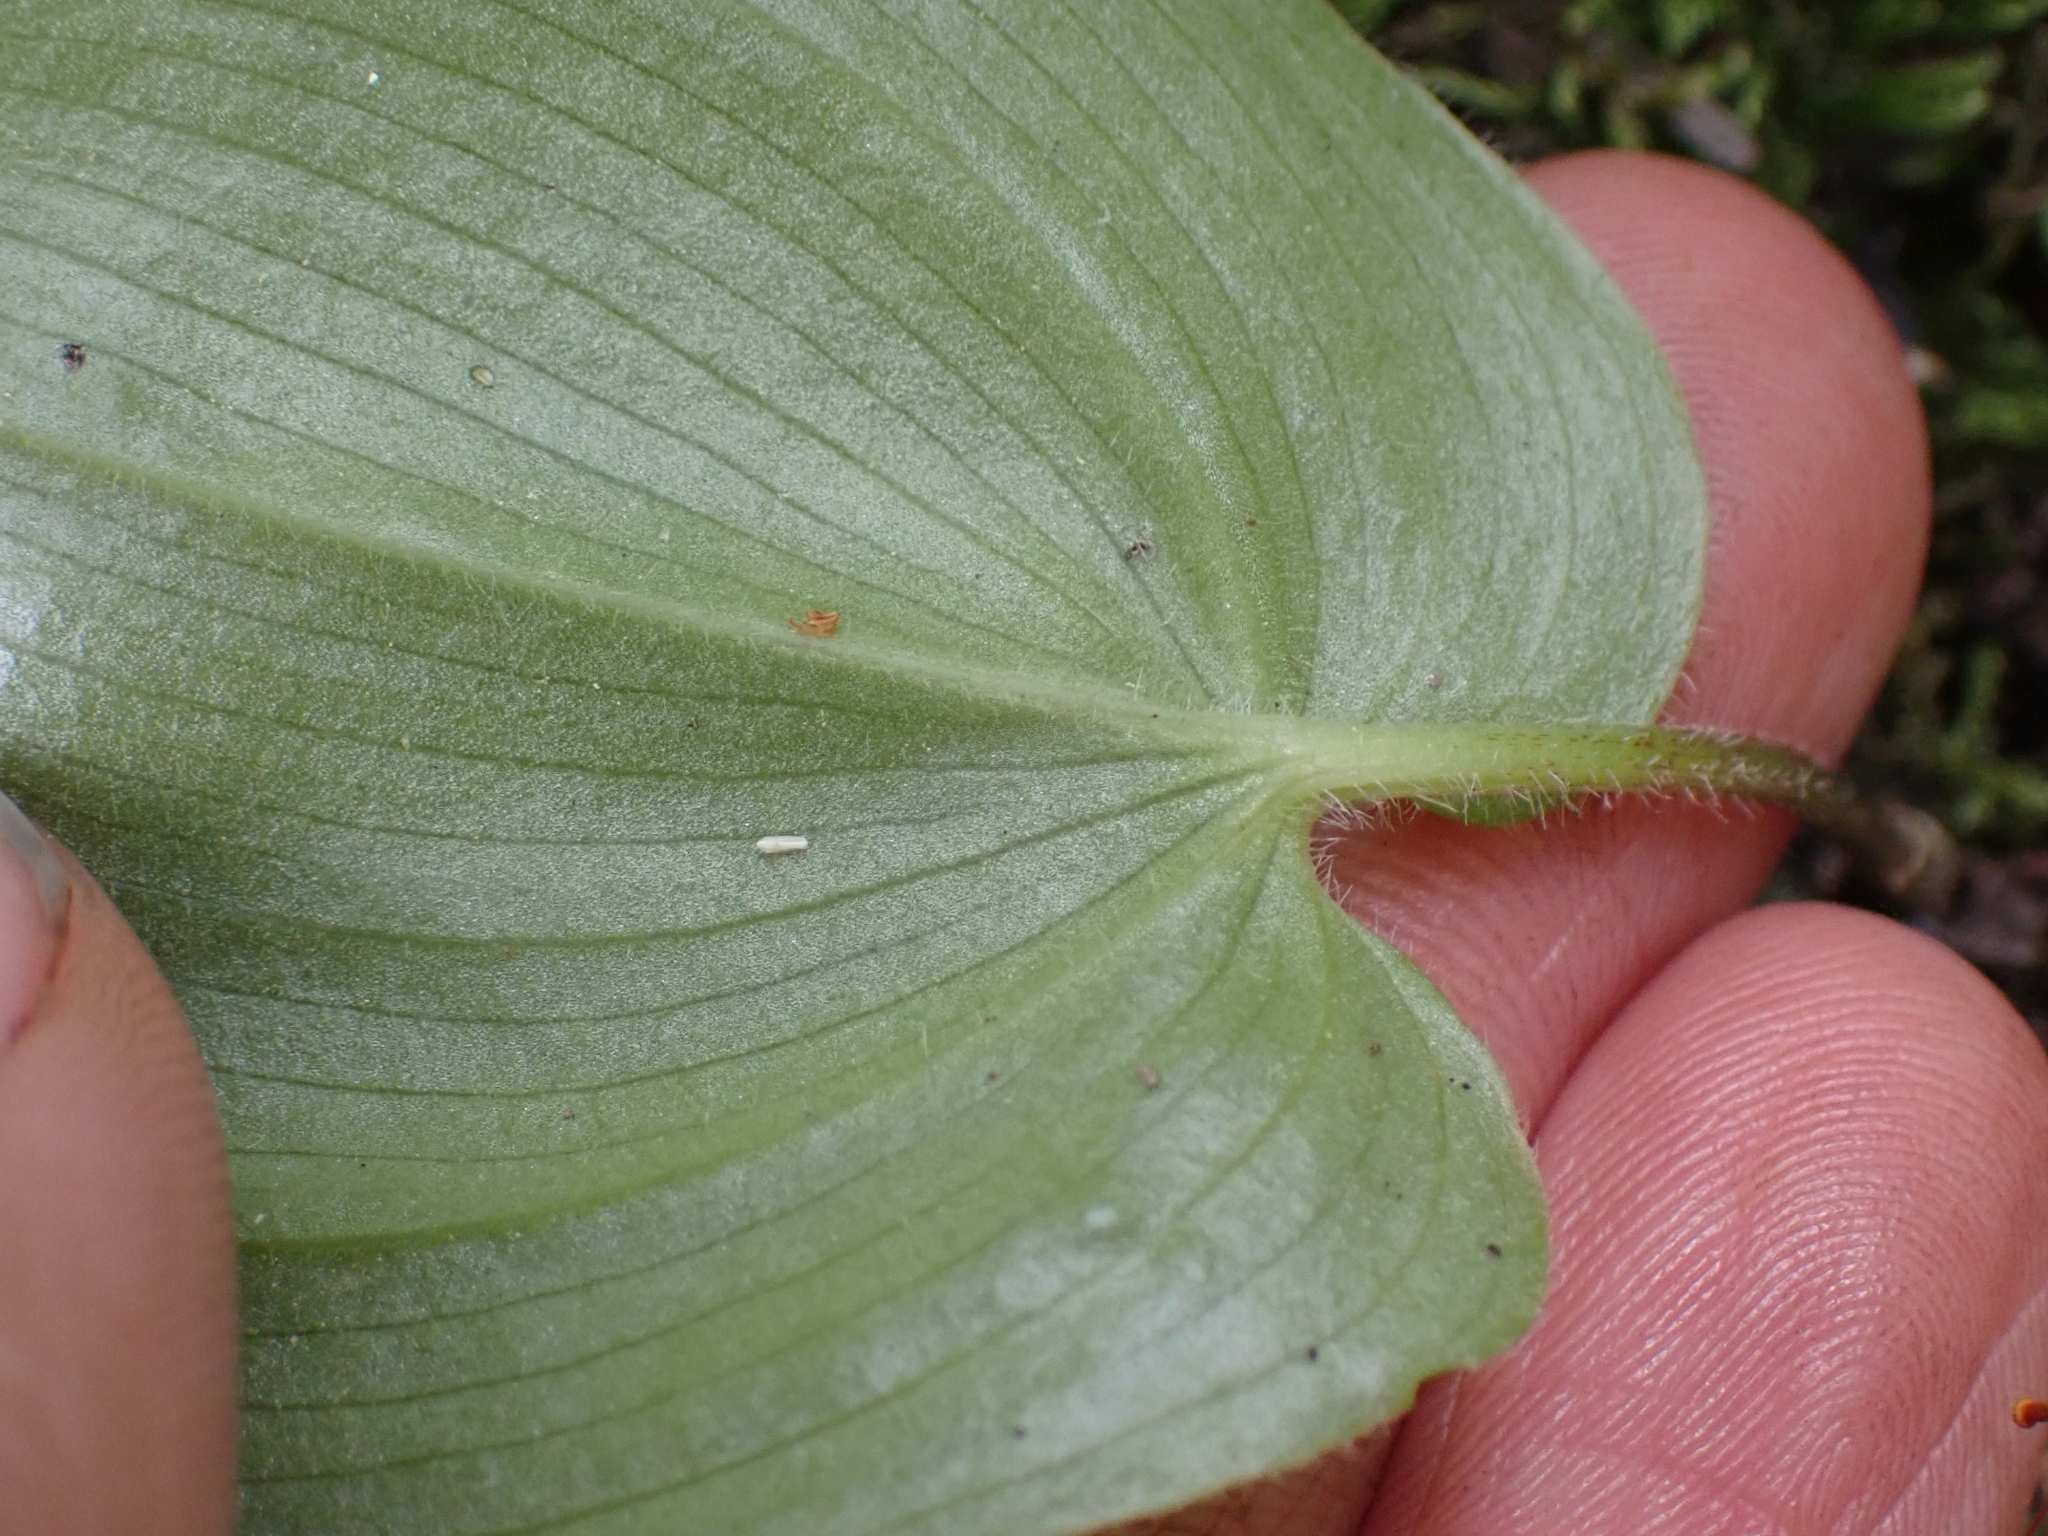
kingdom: Plantae
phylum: Tracheophyta
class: Liliopsida
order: Asparagales
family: Asparagaceae
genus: Maianthemum
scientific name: Maianthemum canadense
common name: False lily-of-the-valley
